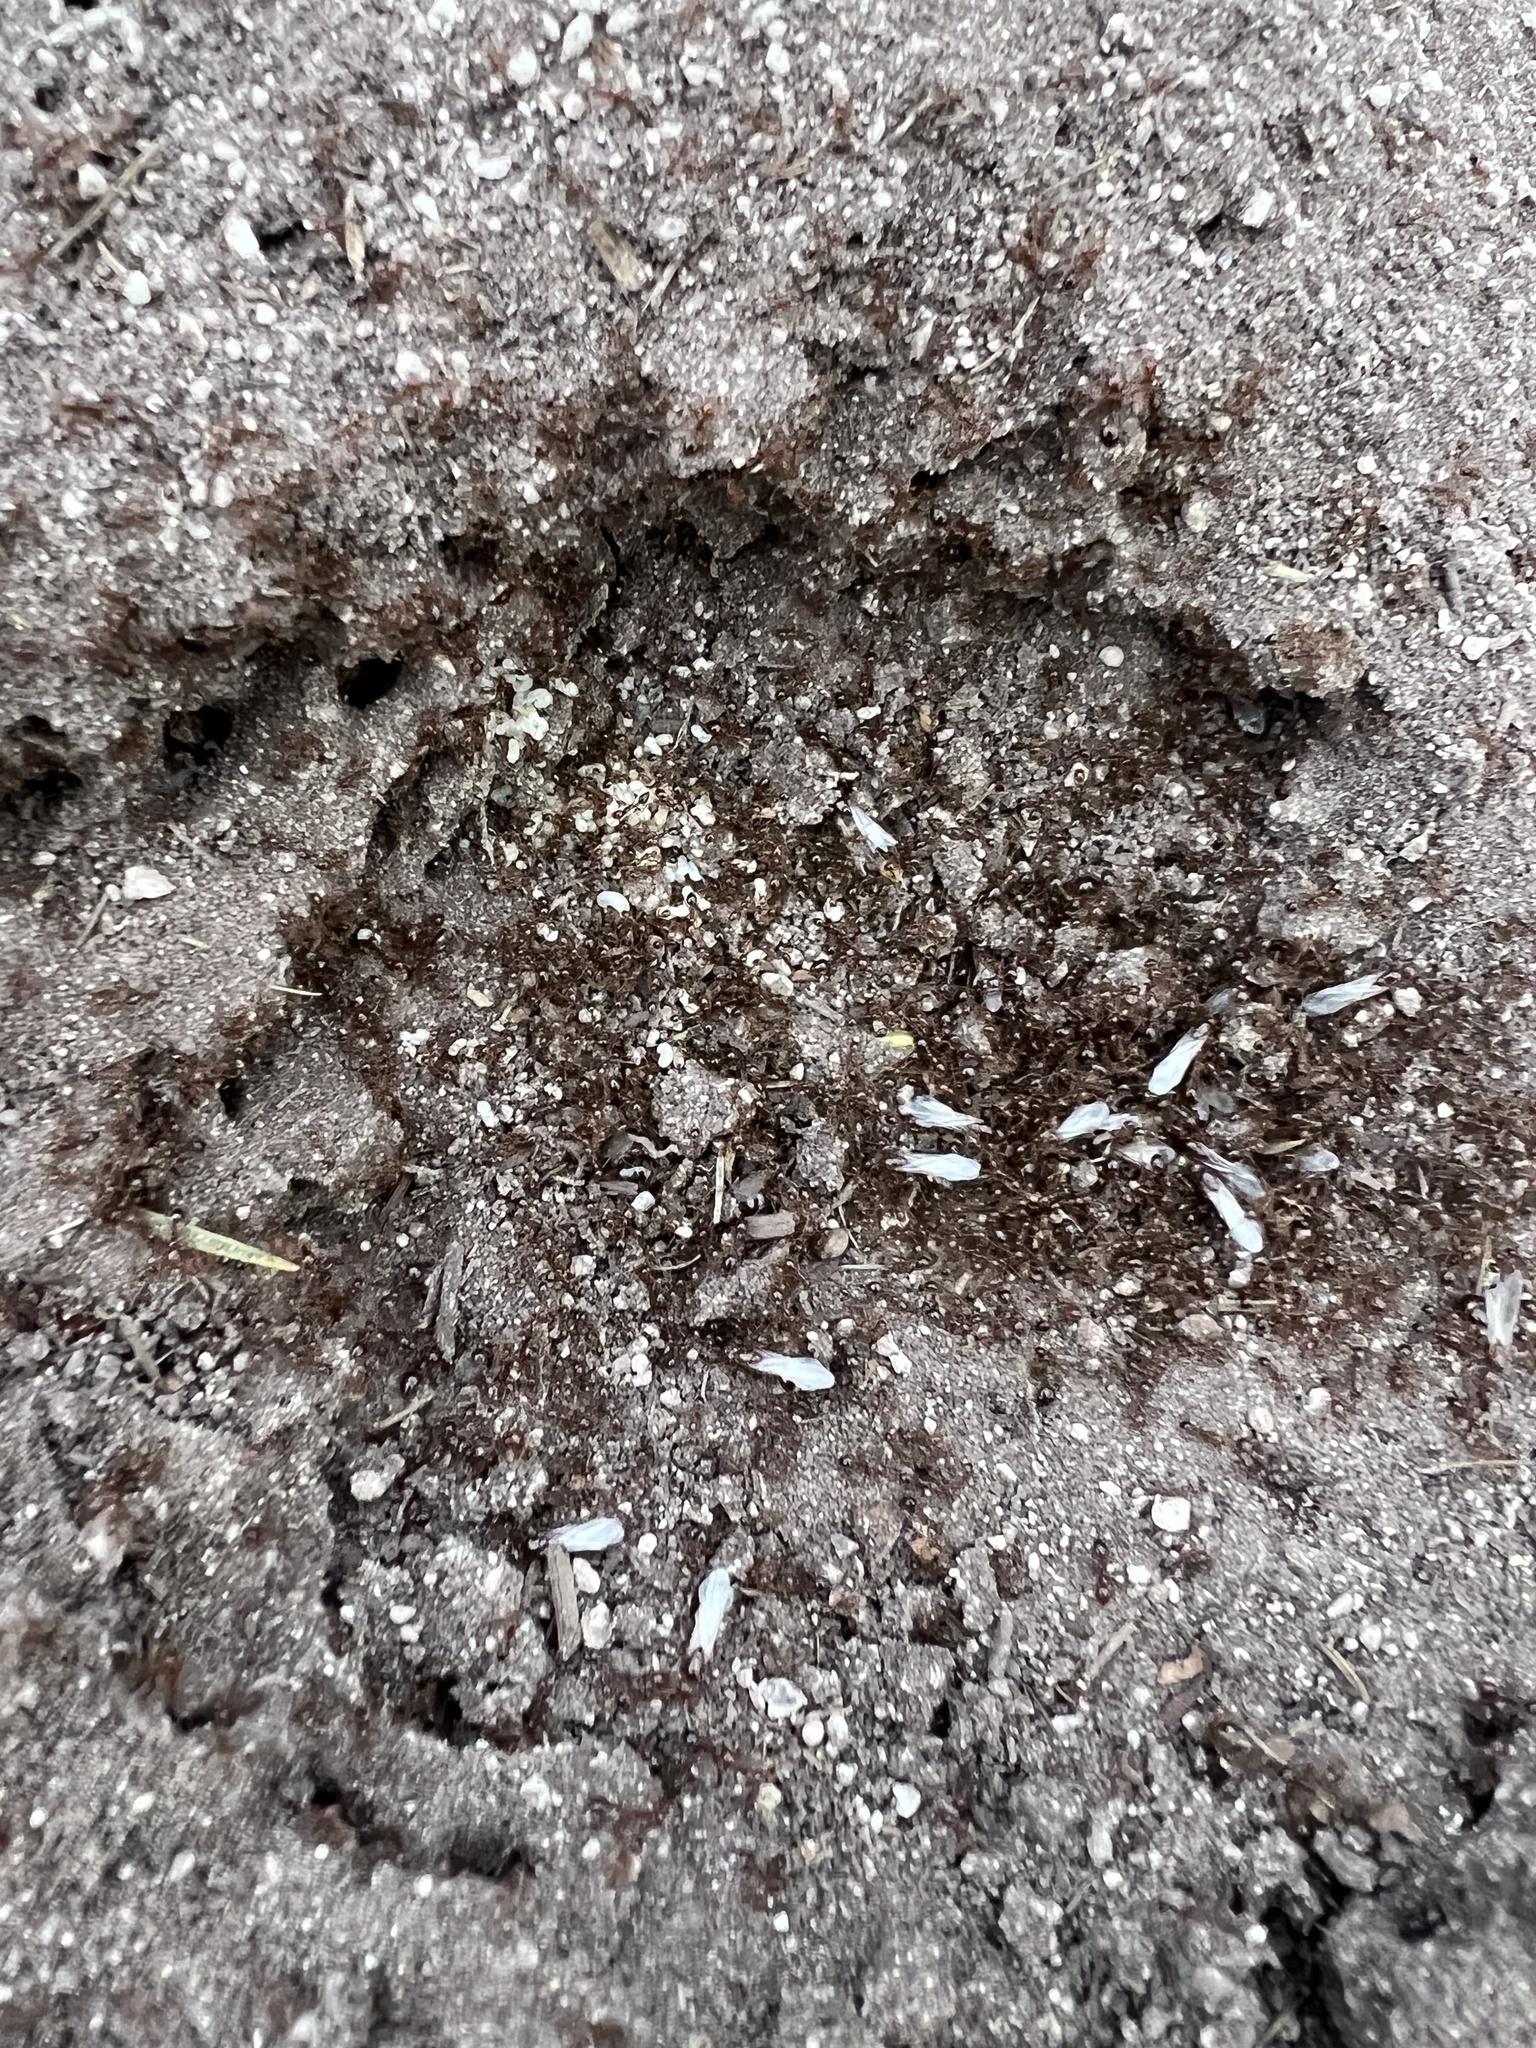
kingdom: Animalia
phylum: Arthropoda
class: Insecta
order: Hymenoptera
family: Formicidae
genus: Solenopsis
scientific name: Solenopsis invicta
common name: Red imported fire ant
